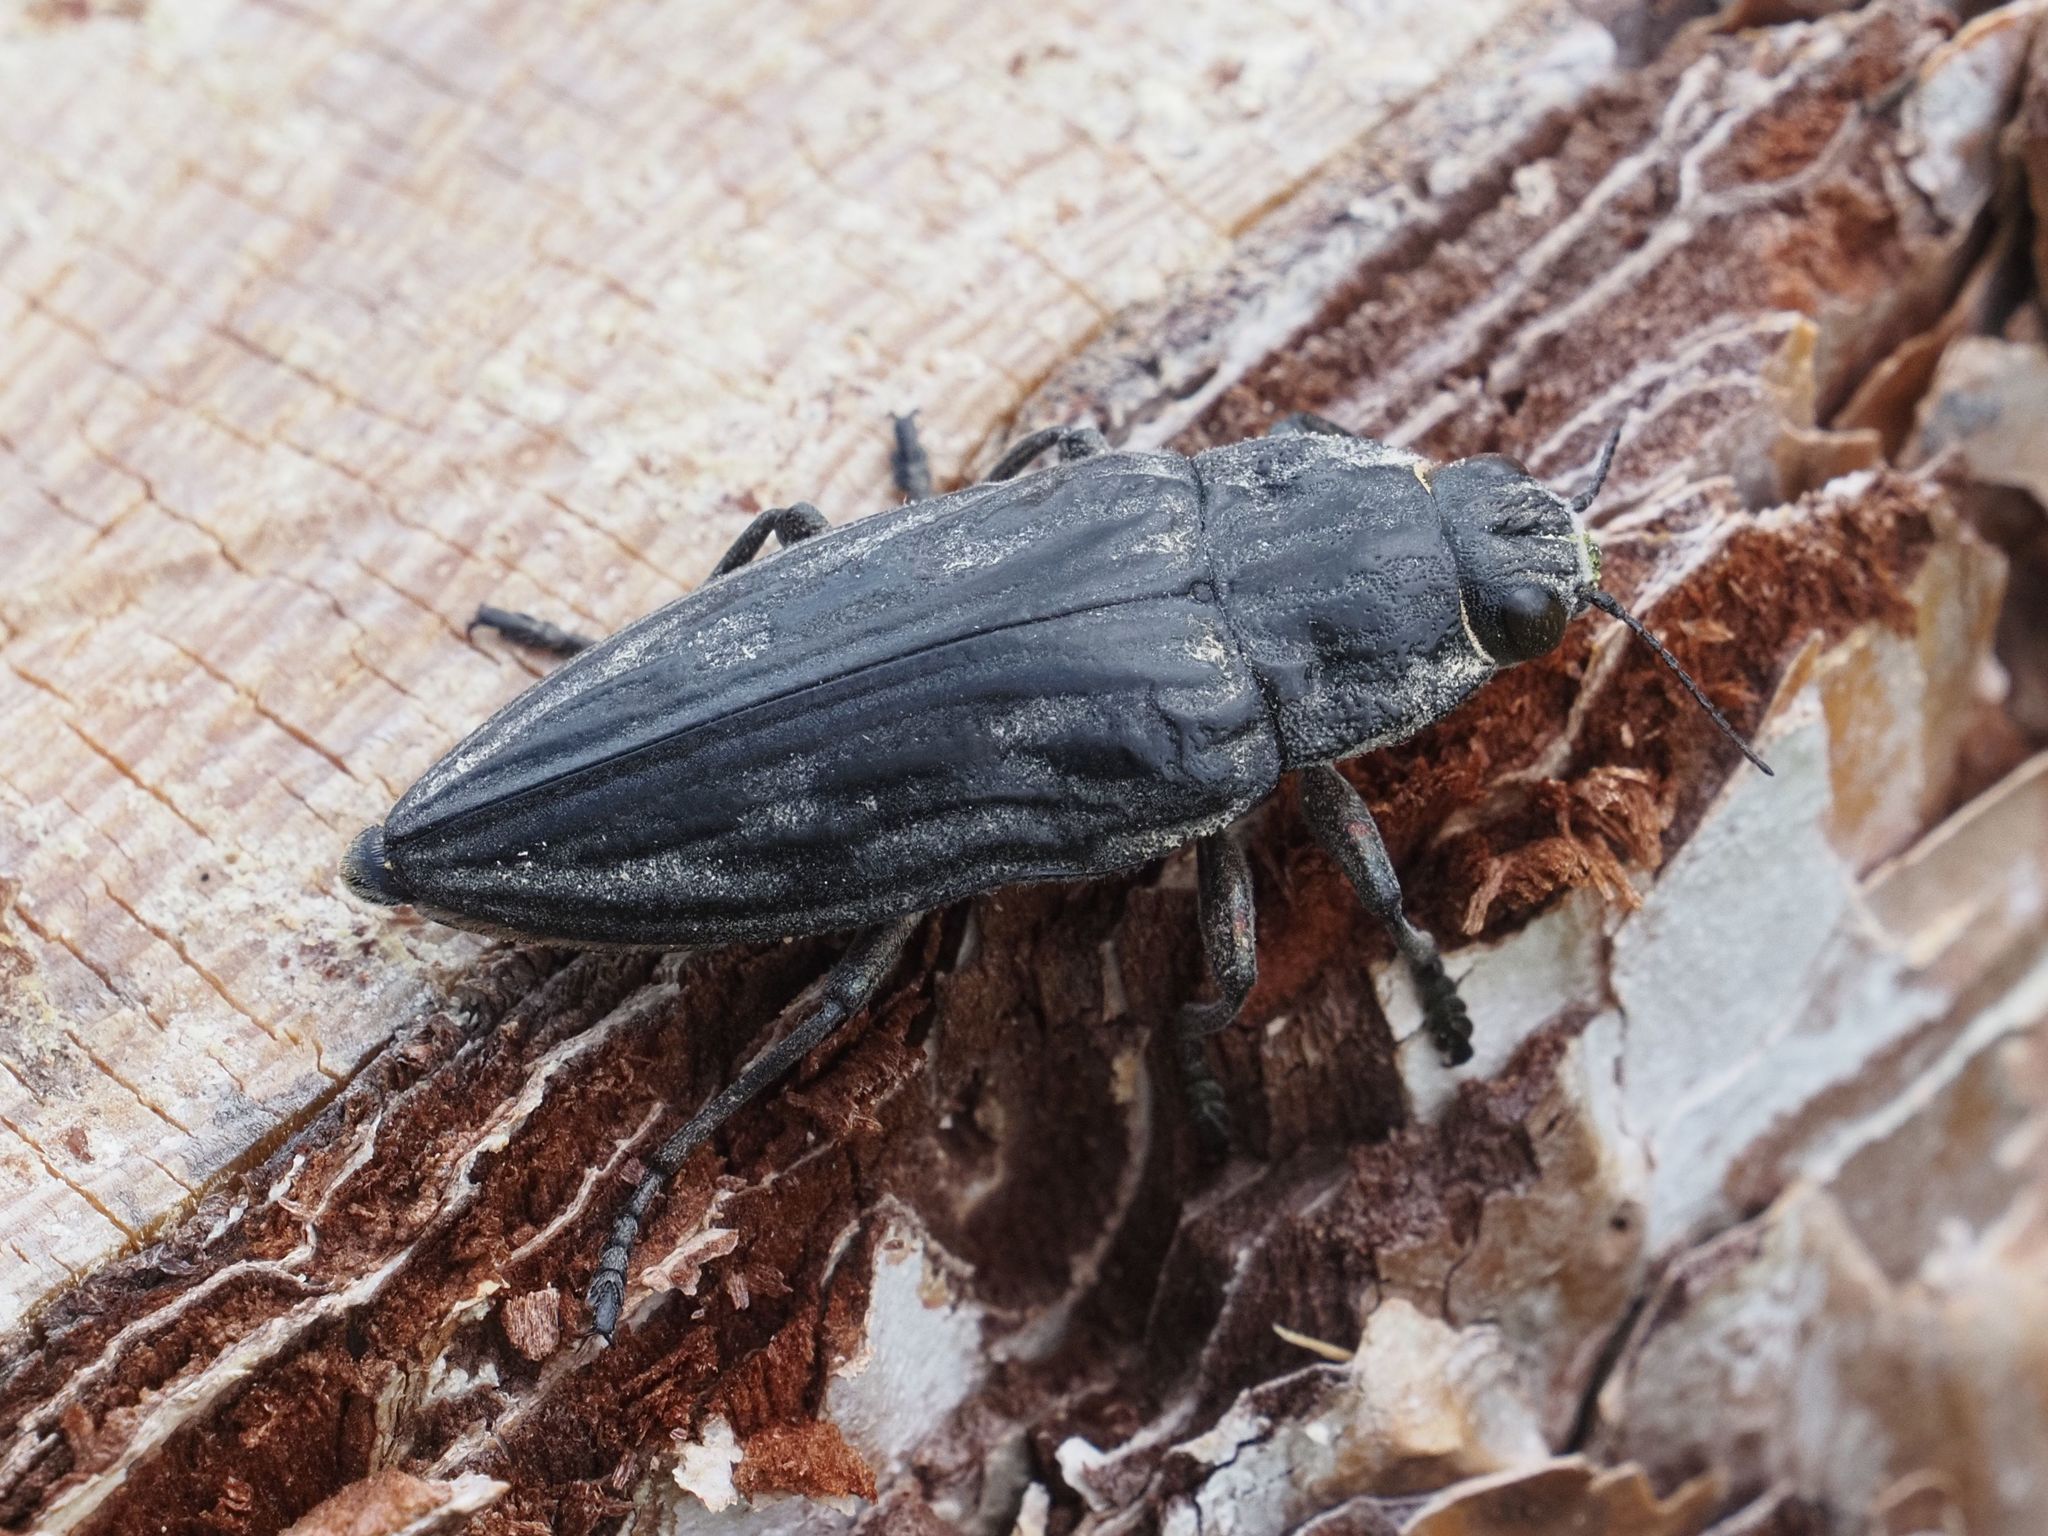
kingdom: Animalia
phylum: Arthropoda
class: Insecta
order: Coleoptera
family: Buprestidae
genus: Chalcophora
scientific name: Chalcophora mariana
